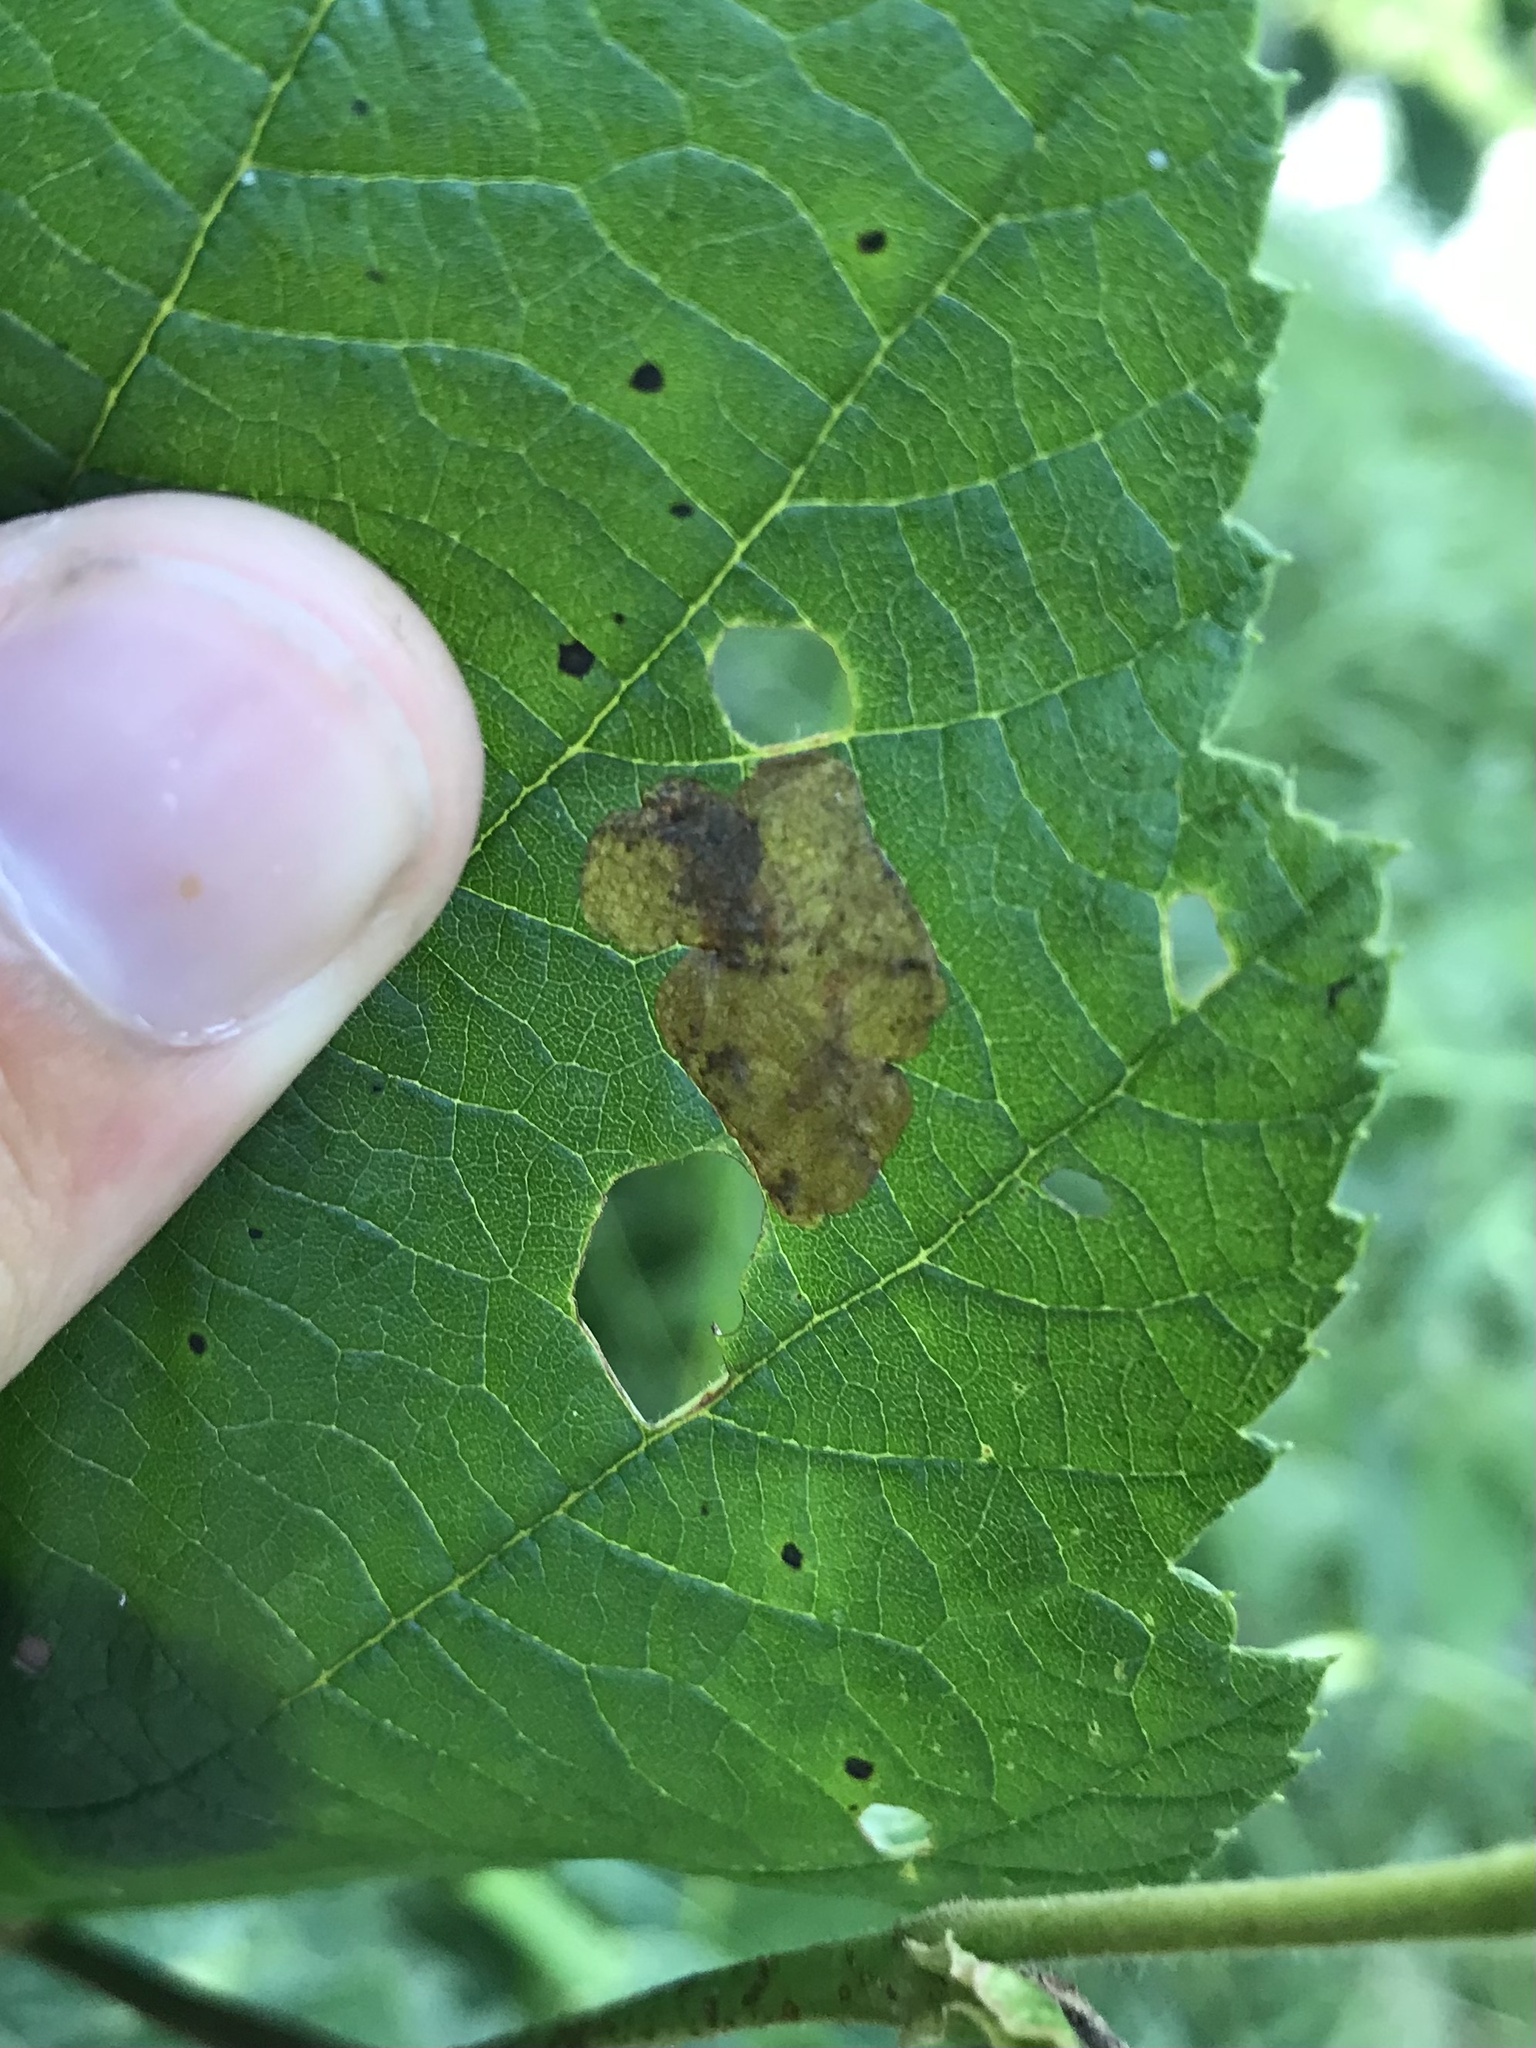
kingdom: Animalia
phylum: Arthropoda
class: Insecta
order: Hymenoptera
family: Tenthredinidae
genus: Fenusa
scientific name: Fenusa dohrnii
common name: European alder leafminer
